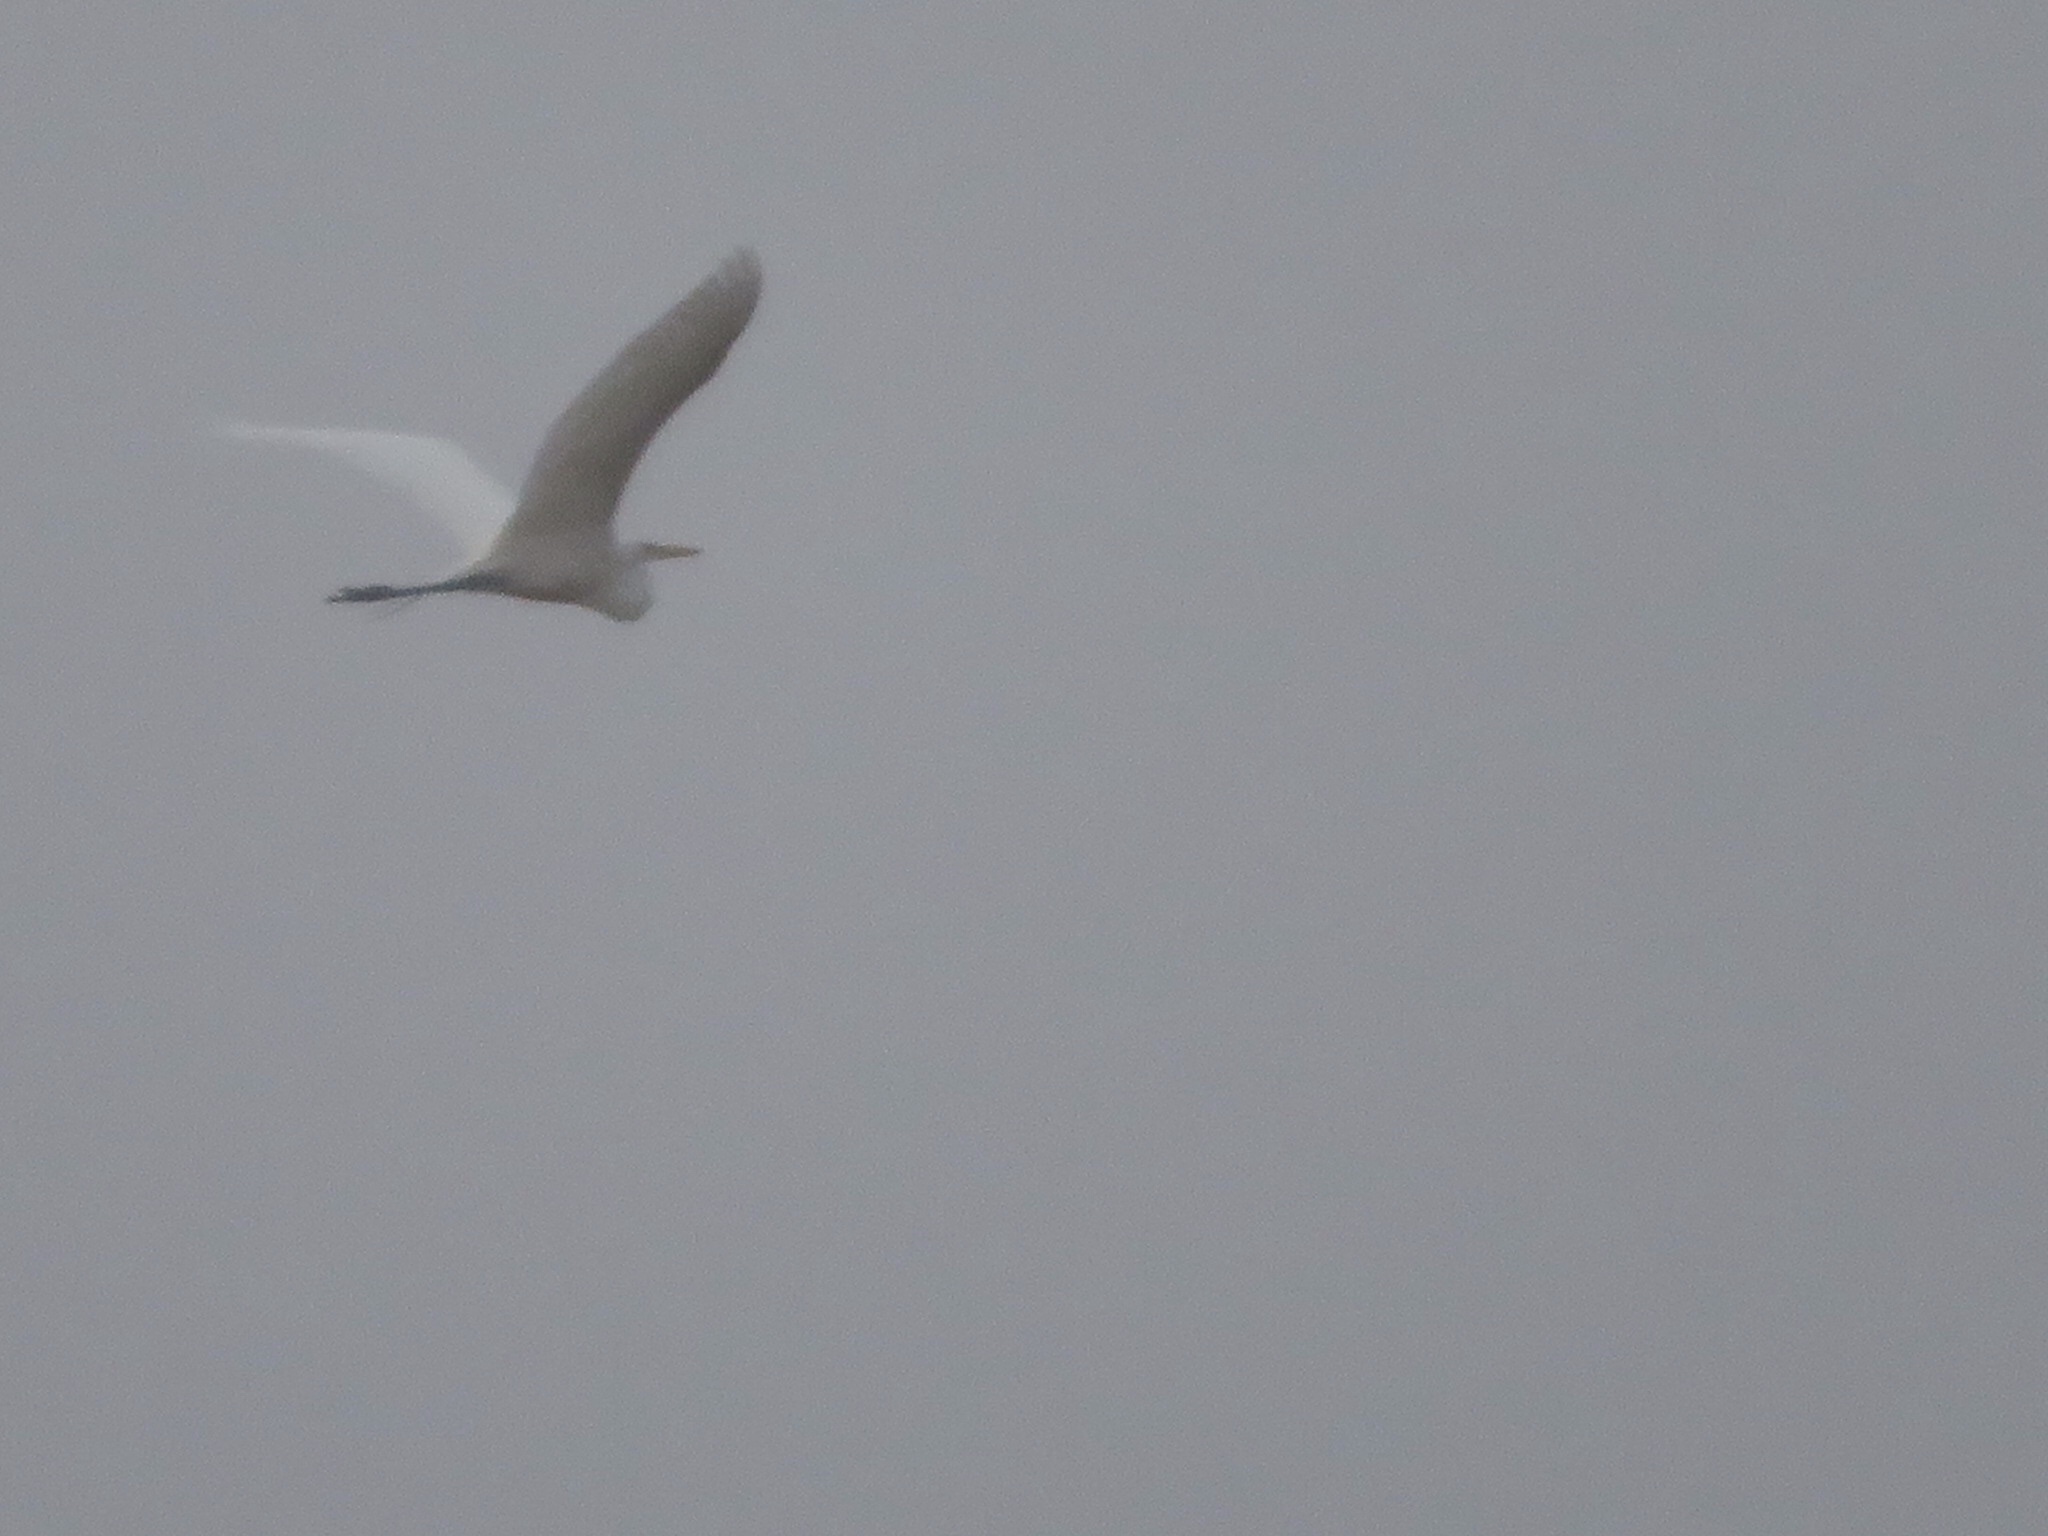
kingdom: Animalia
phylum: Chordata
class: Aves
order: Pelecaniformes
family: Ardeidae
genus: Ardea
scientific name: Ardea alba
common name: Great egret
